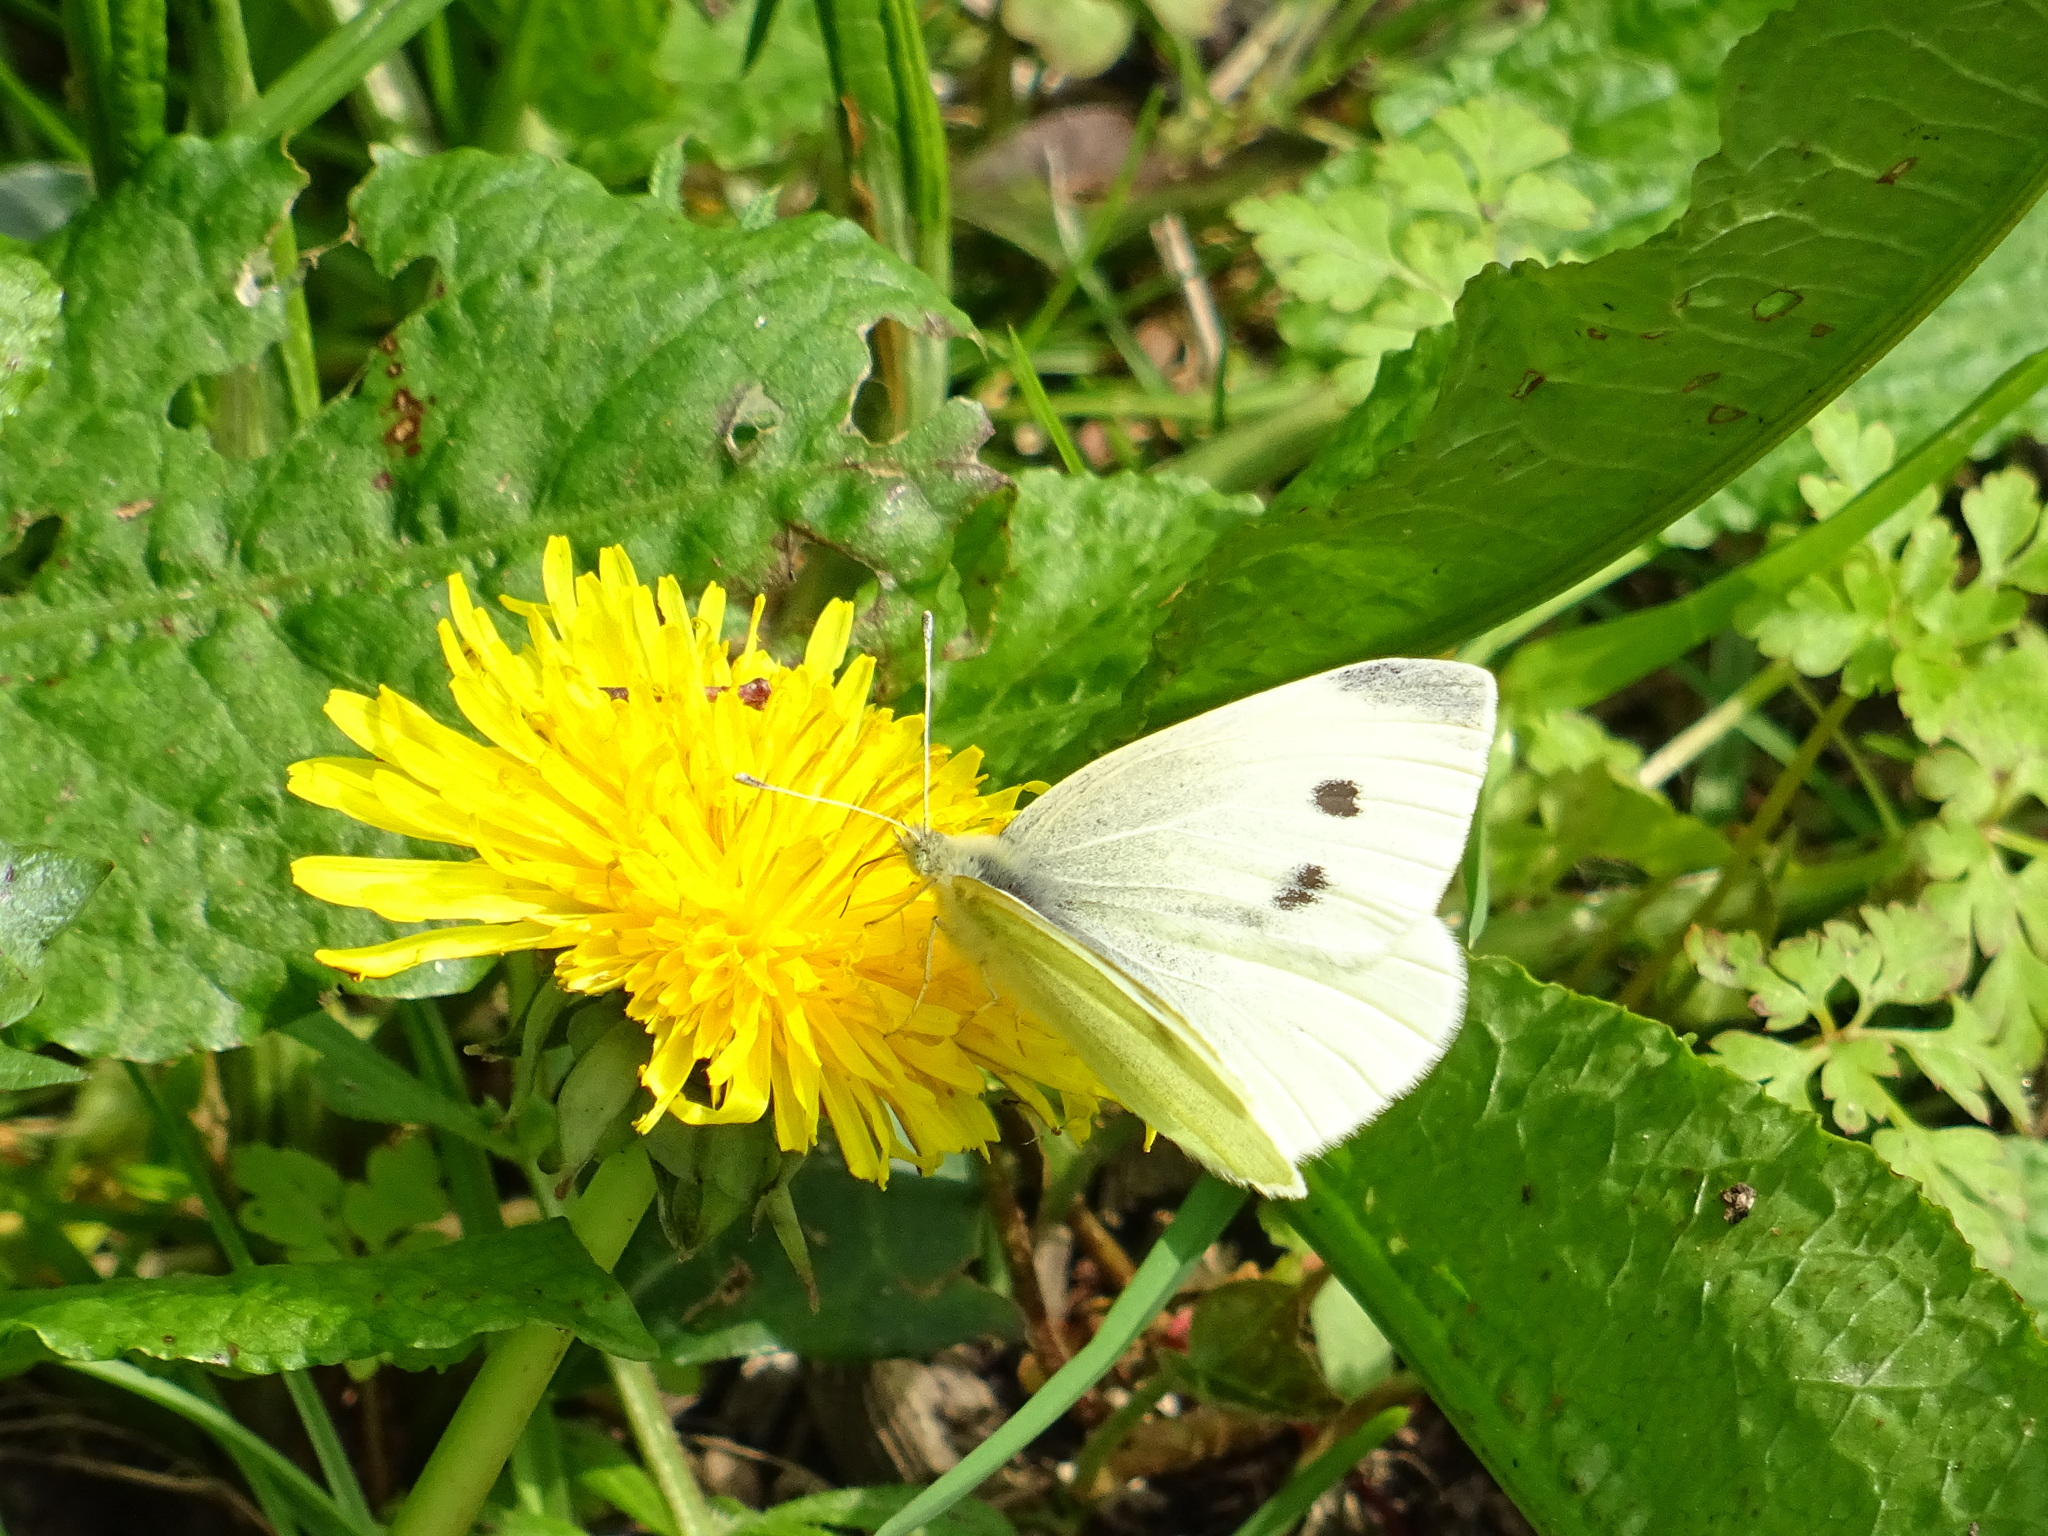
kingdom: Animalia
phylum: Arthropoda
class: Insecta
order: Lepidoptera
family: Pieridae
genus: Pieris
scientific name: Pieris rapae
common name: Small white
